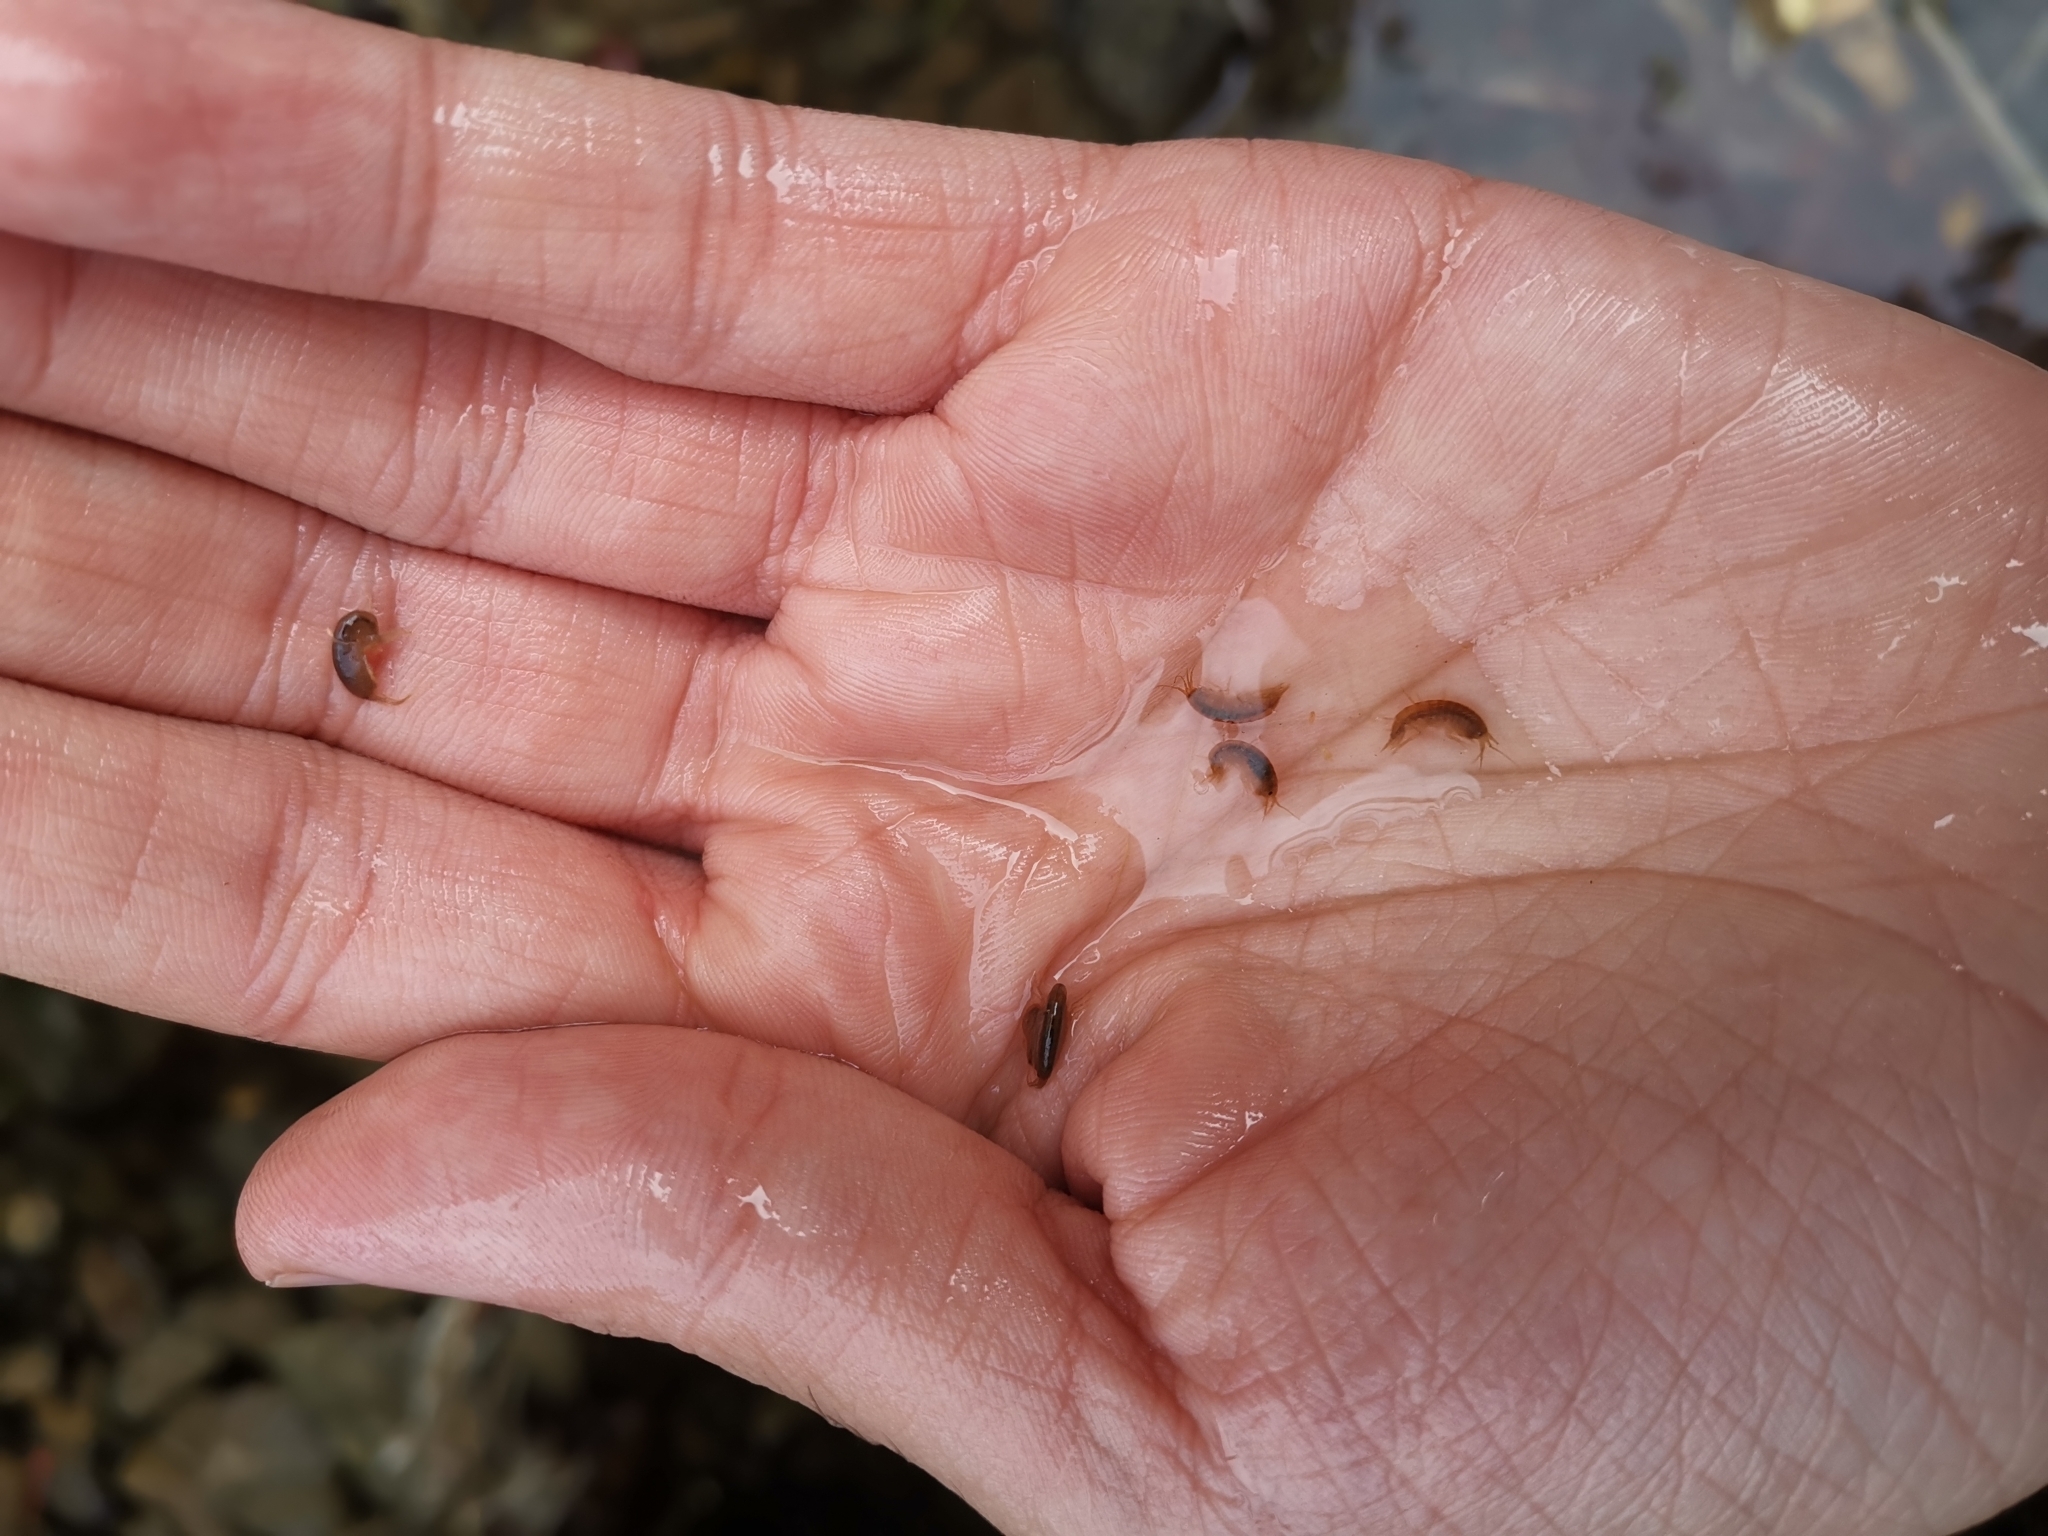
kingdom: Animalia
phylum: Arthropoda
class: Malacostraca
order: Amphipoda
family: Gammaridae
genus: Gammarus
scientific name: Gammarus fossarum
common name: Mountain riverine amphipod
